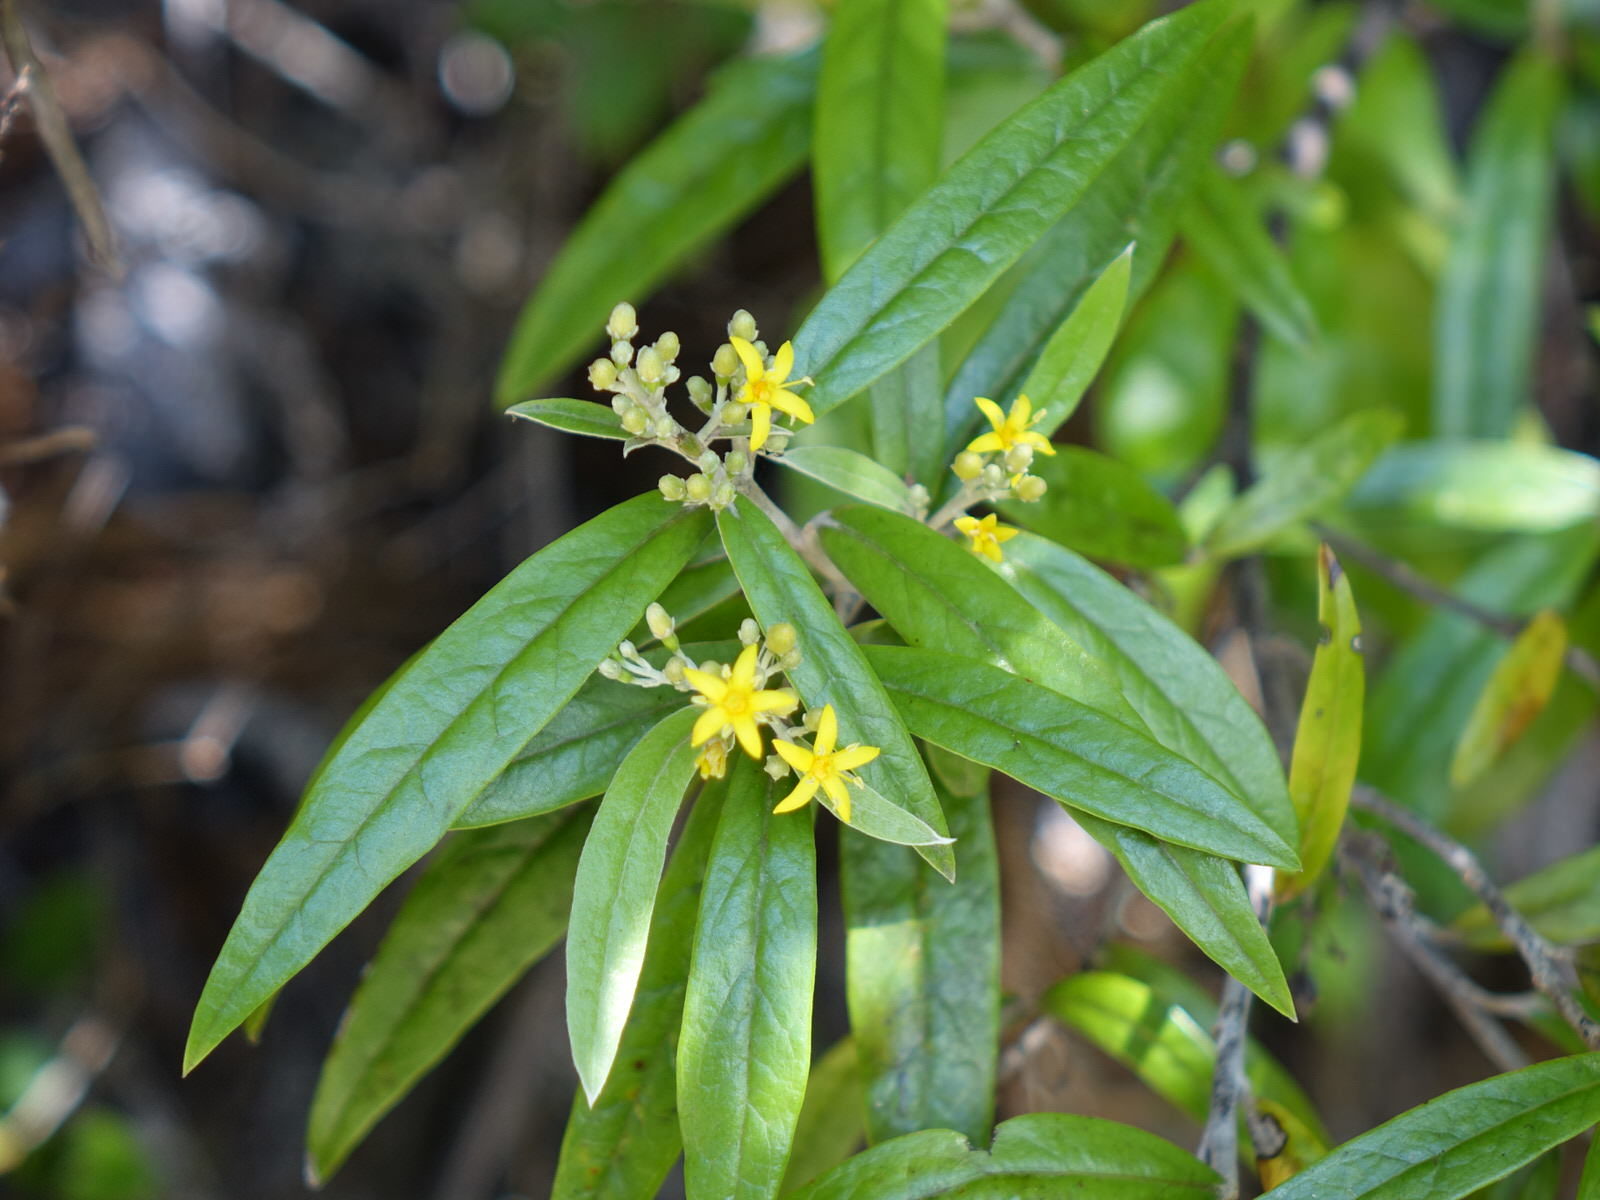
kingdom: Plantae
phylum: Tracheophyta
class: Magnoliopsida
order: Asterales
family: Argophyllaceae
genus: Corokia
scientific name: Corokia buddleioides
